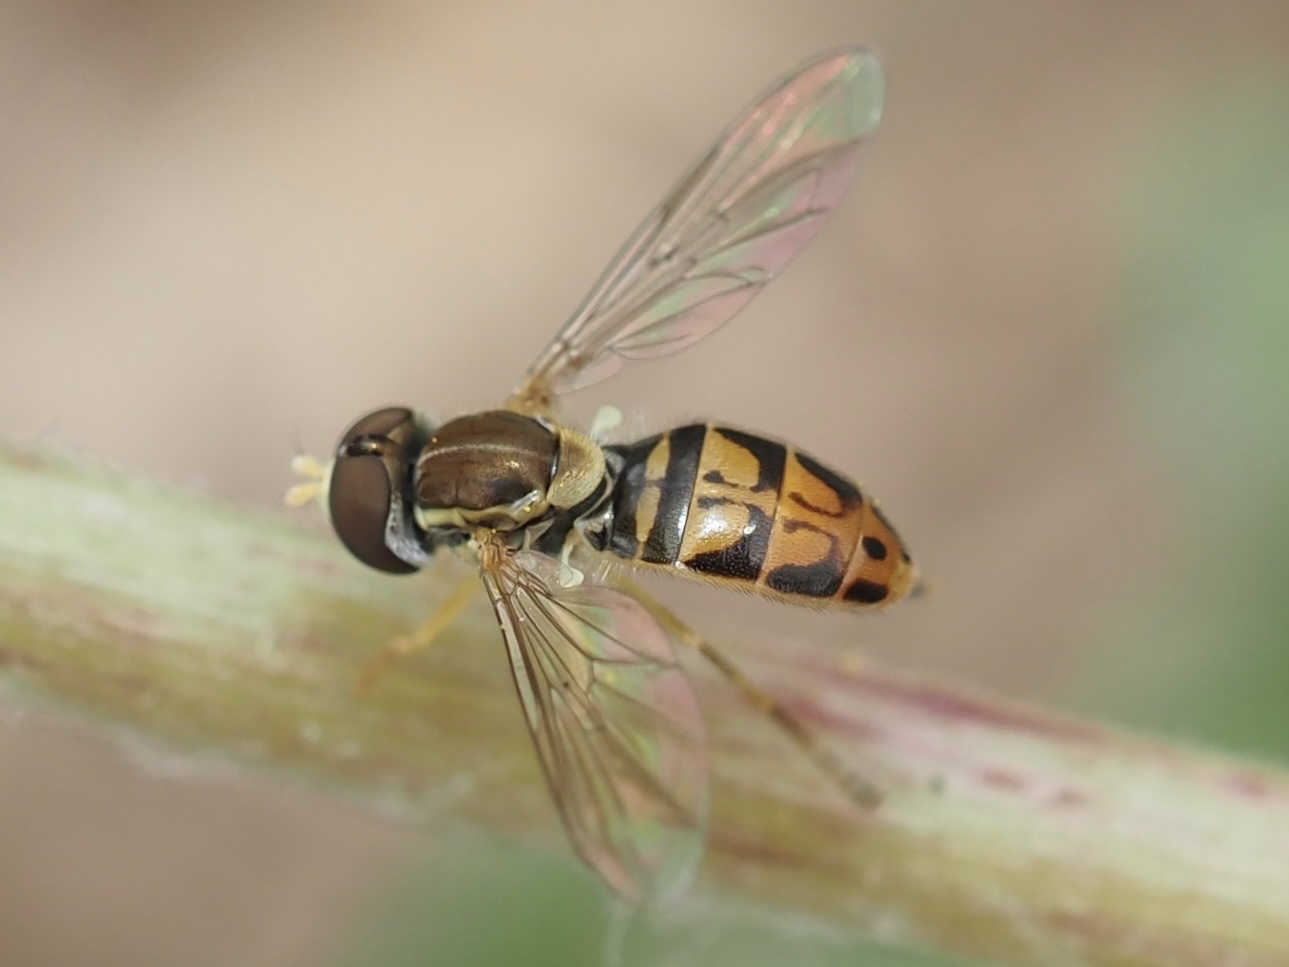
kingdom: Animalia
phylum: Arthropoda
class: Insecta
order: Diptera
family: Syrphidae
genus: Toxomerus
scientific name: Toxomerus marginatus
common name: Syrphid fly
